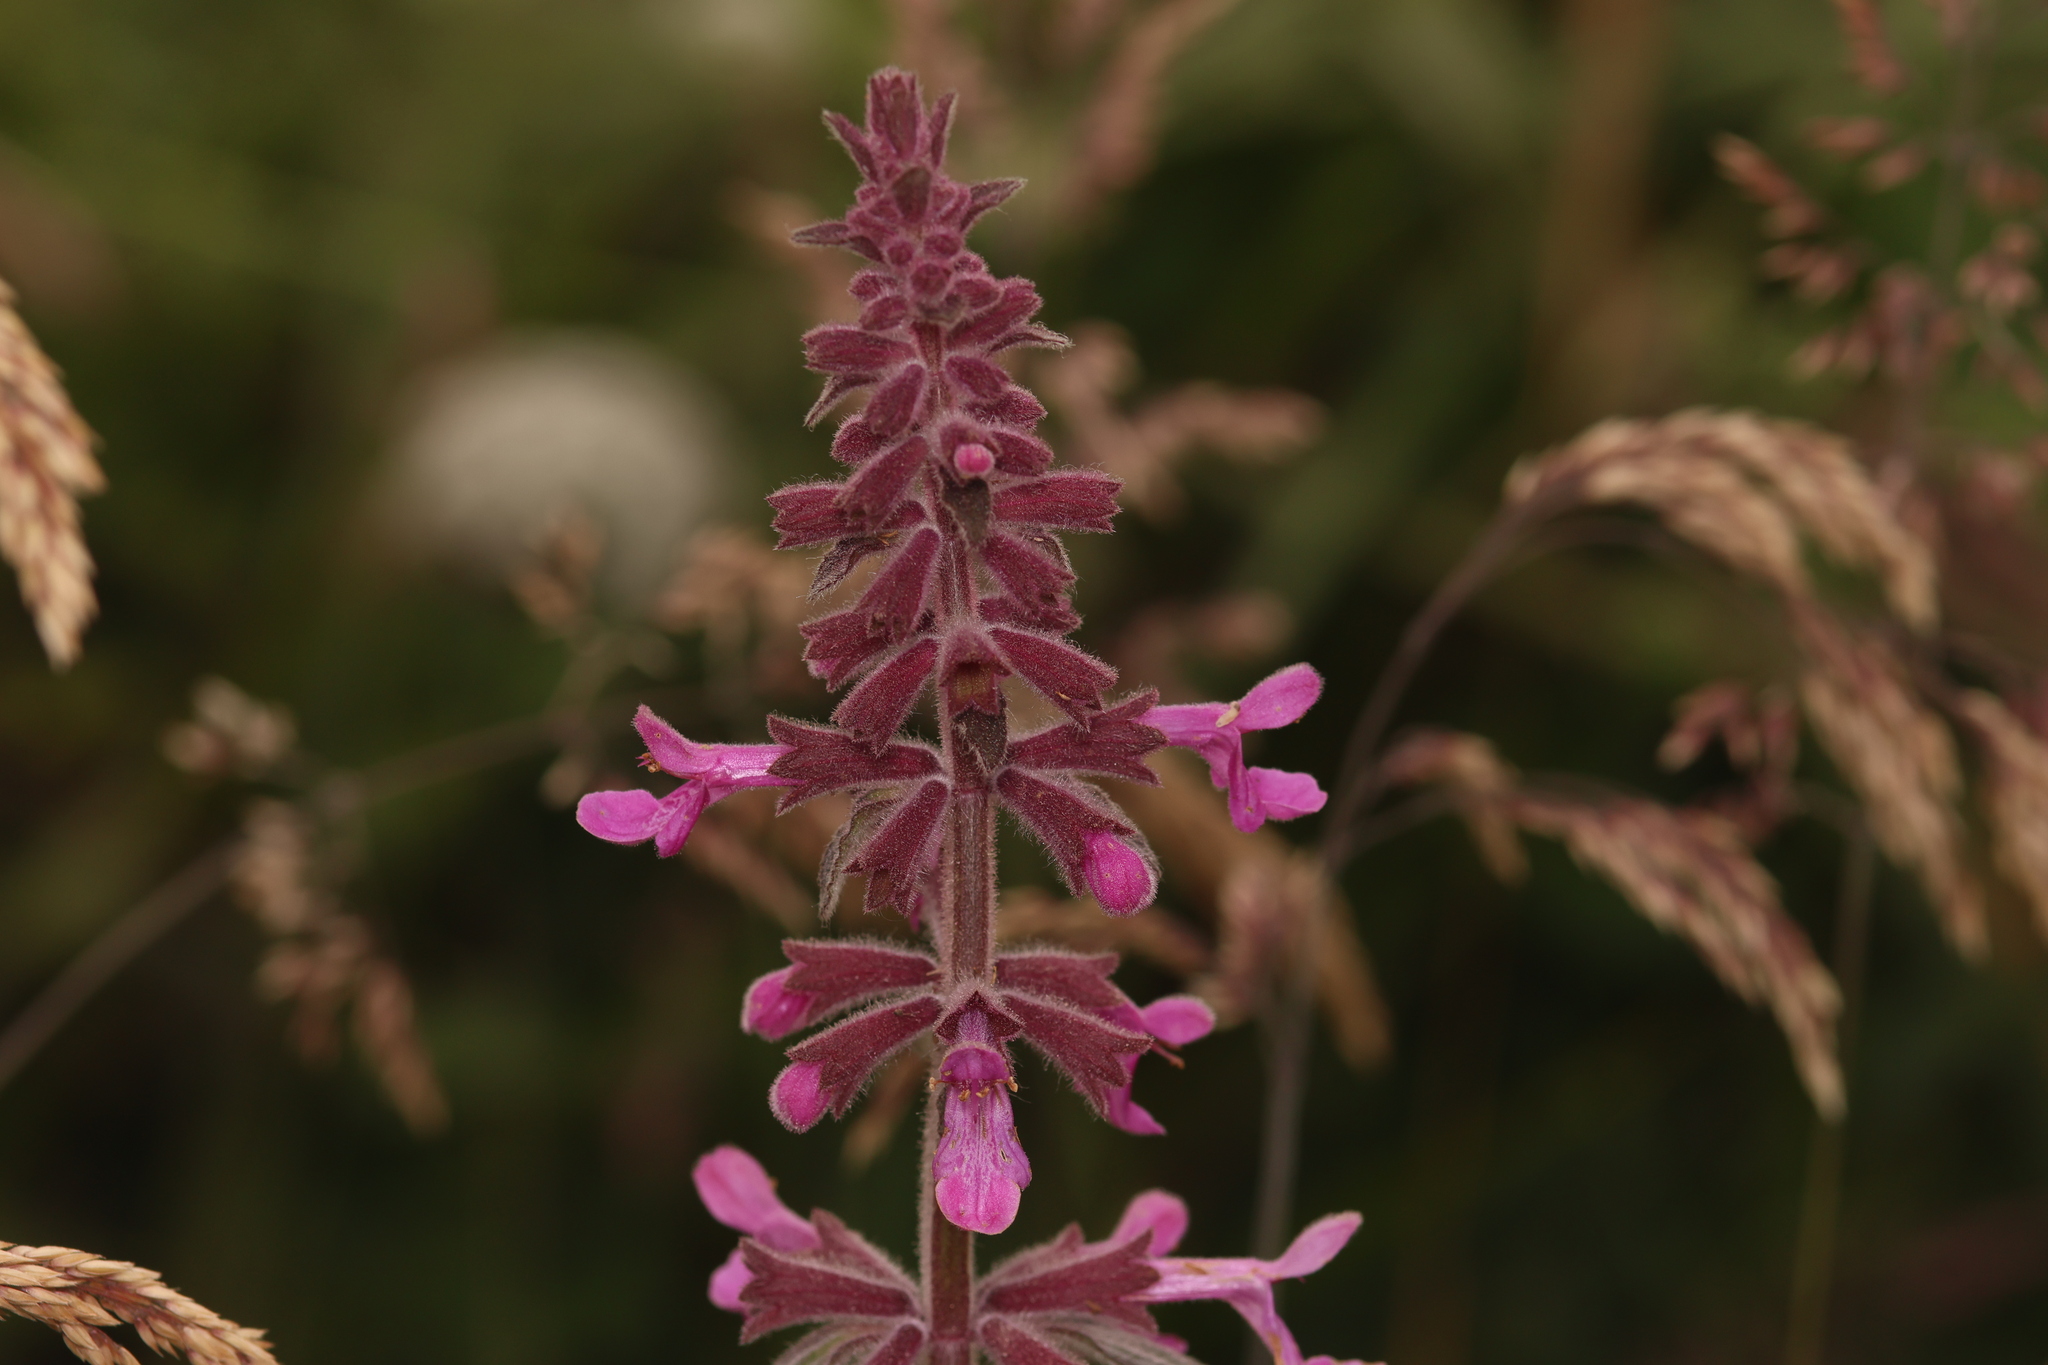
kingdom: Plantae
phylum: Tracheophyta
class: Magnoliopsida
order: Lamiales
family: Lamiaceae
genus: Stachys
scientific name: Stachys chamissonis
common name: Coastal hedge-nettle
